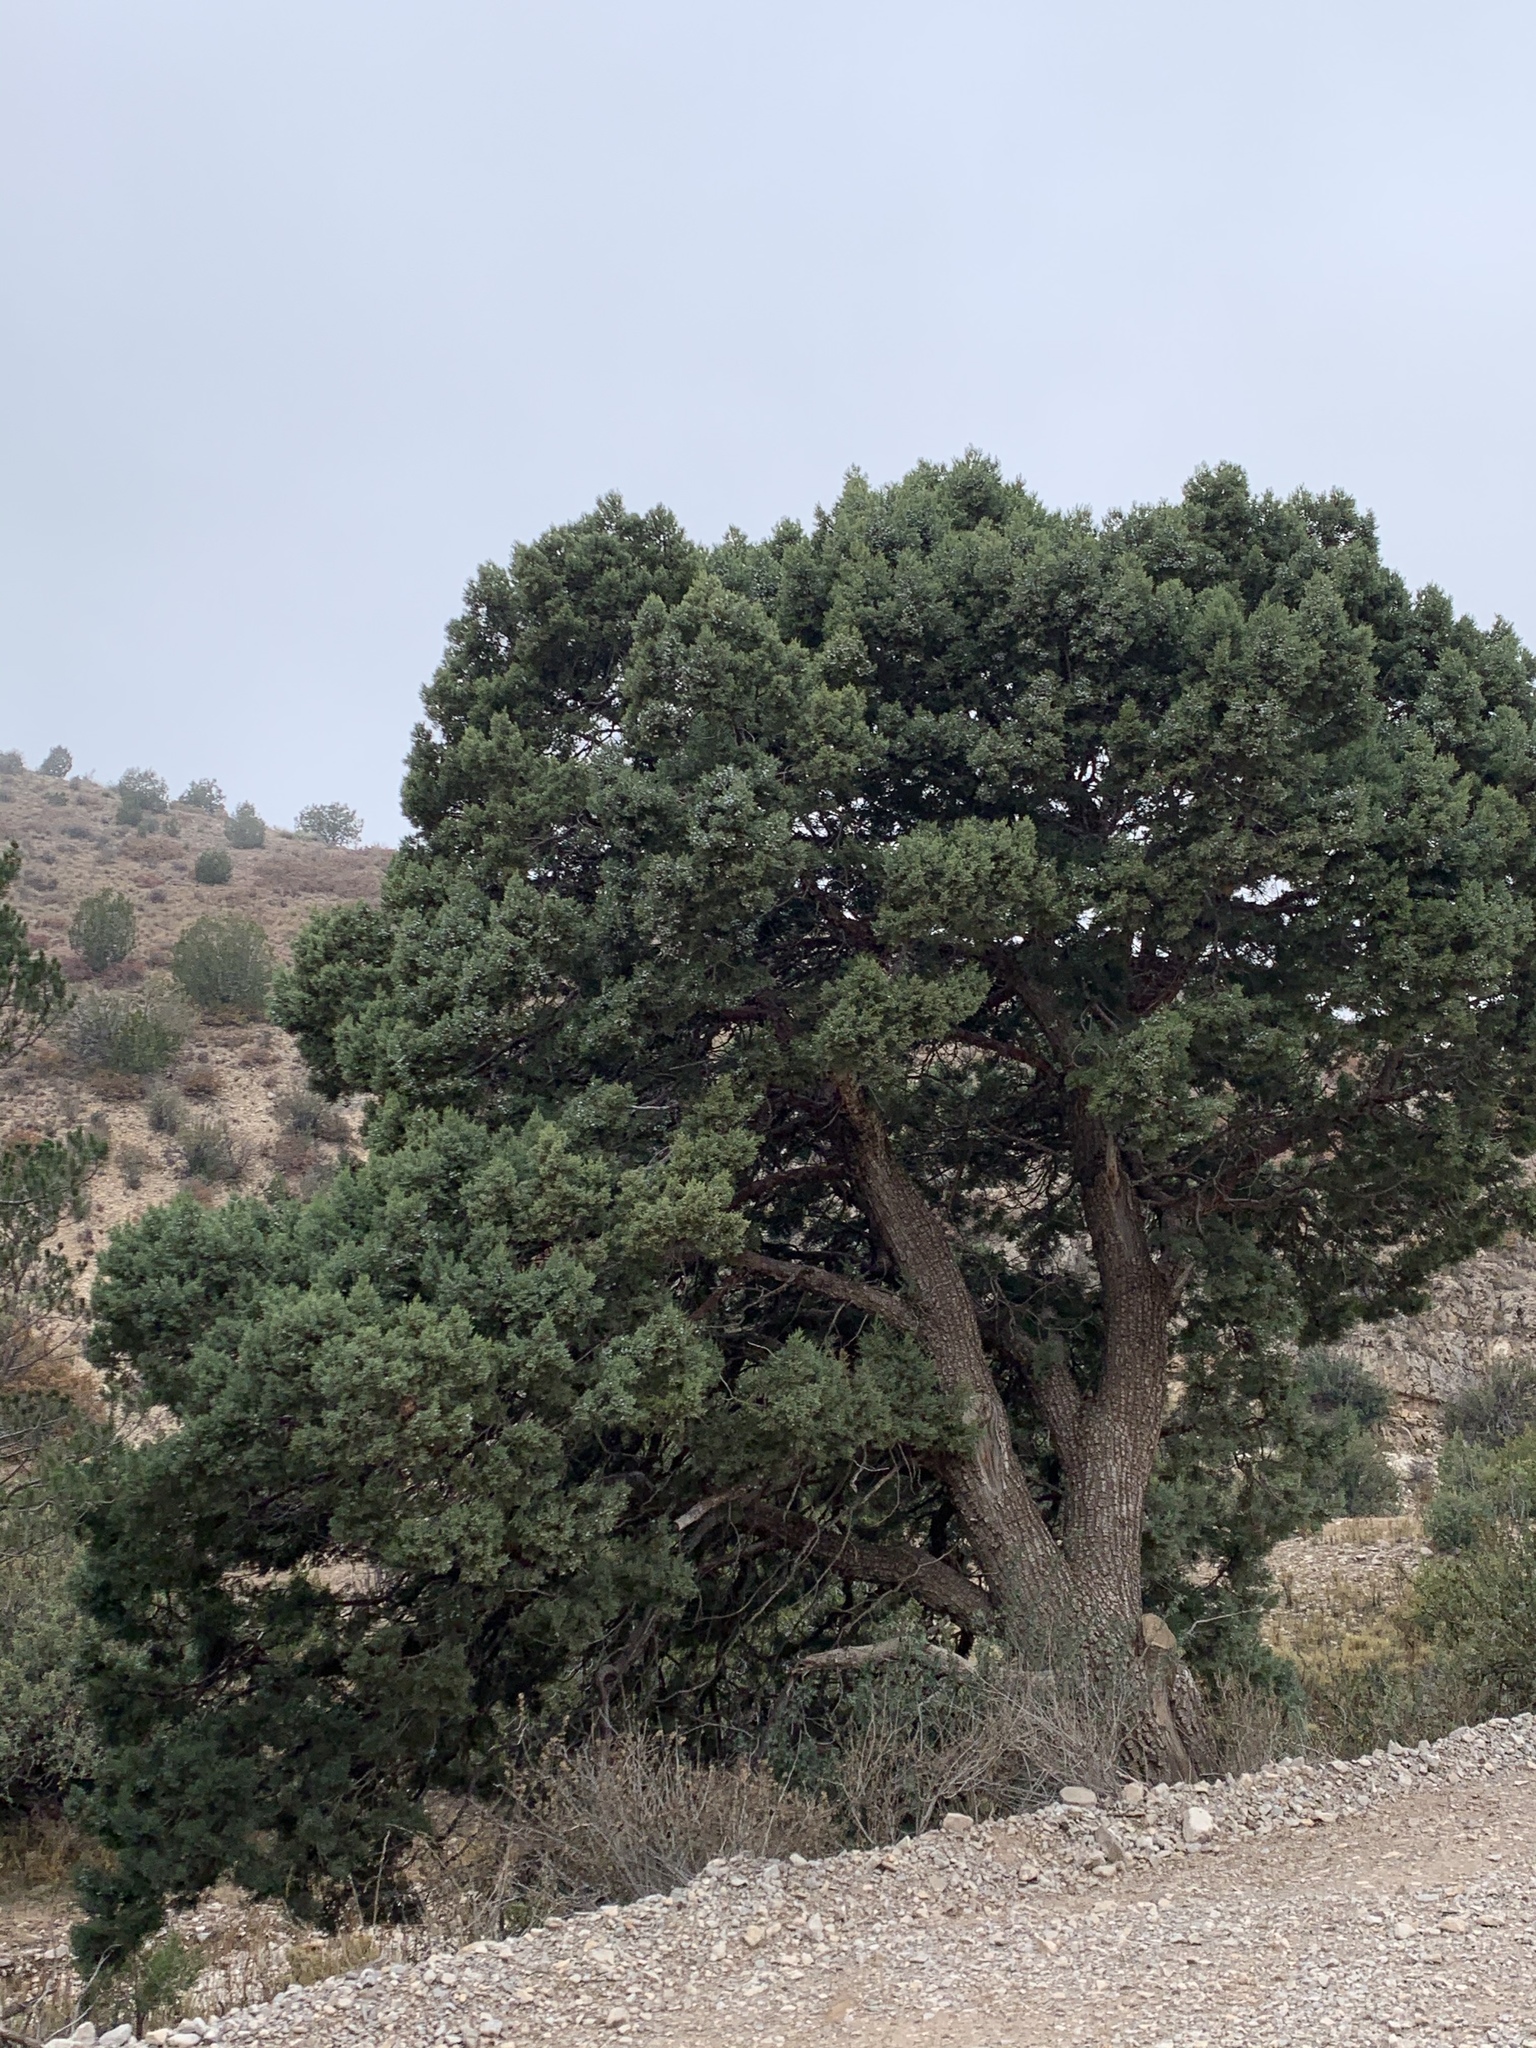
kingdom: Plantae
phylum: Tracheophyta
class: Pinopsida
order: Pinales
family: Cupressaceae
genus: Juniperus
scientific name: Juniperus deppeana
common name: Alligator juniper
